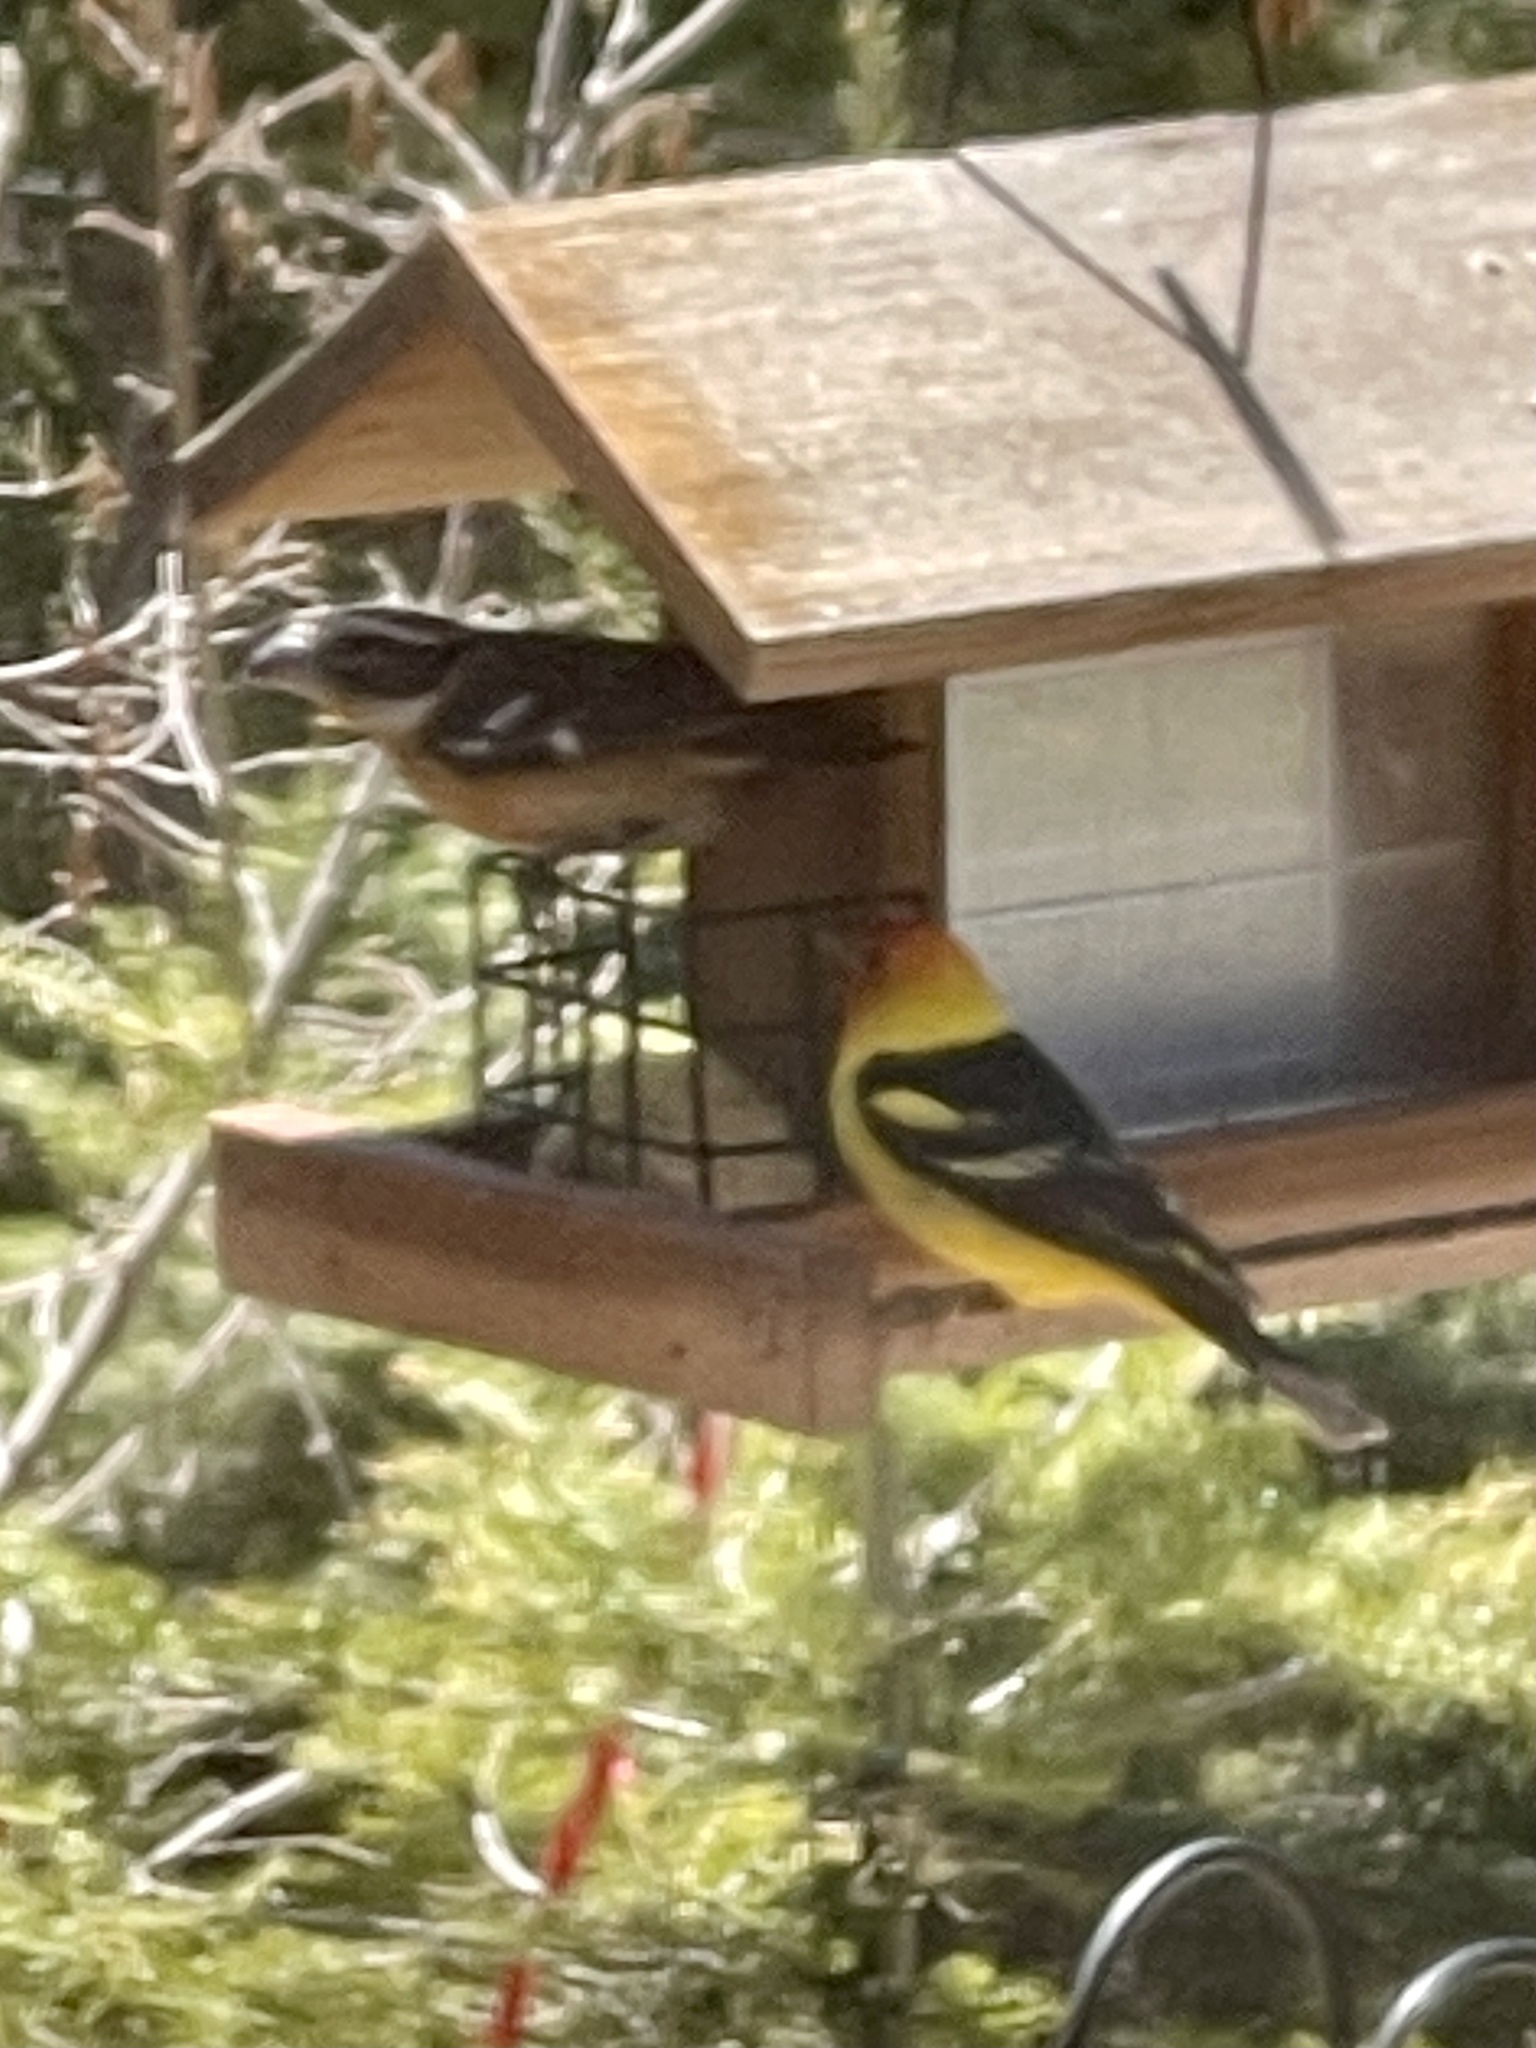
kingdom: Animalia
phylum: Chordata
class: Aves
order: Passeriformes
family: Cardinalidae
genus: Pheucticus
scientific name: Pheucticus melanocephalus
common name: Black-headed grosbeak
